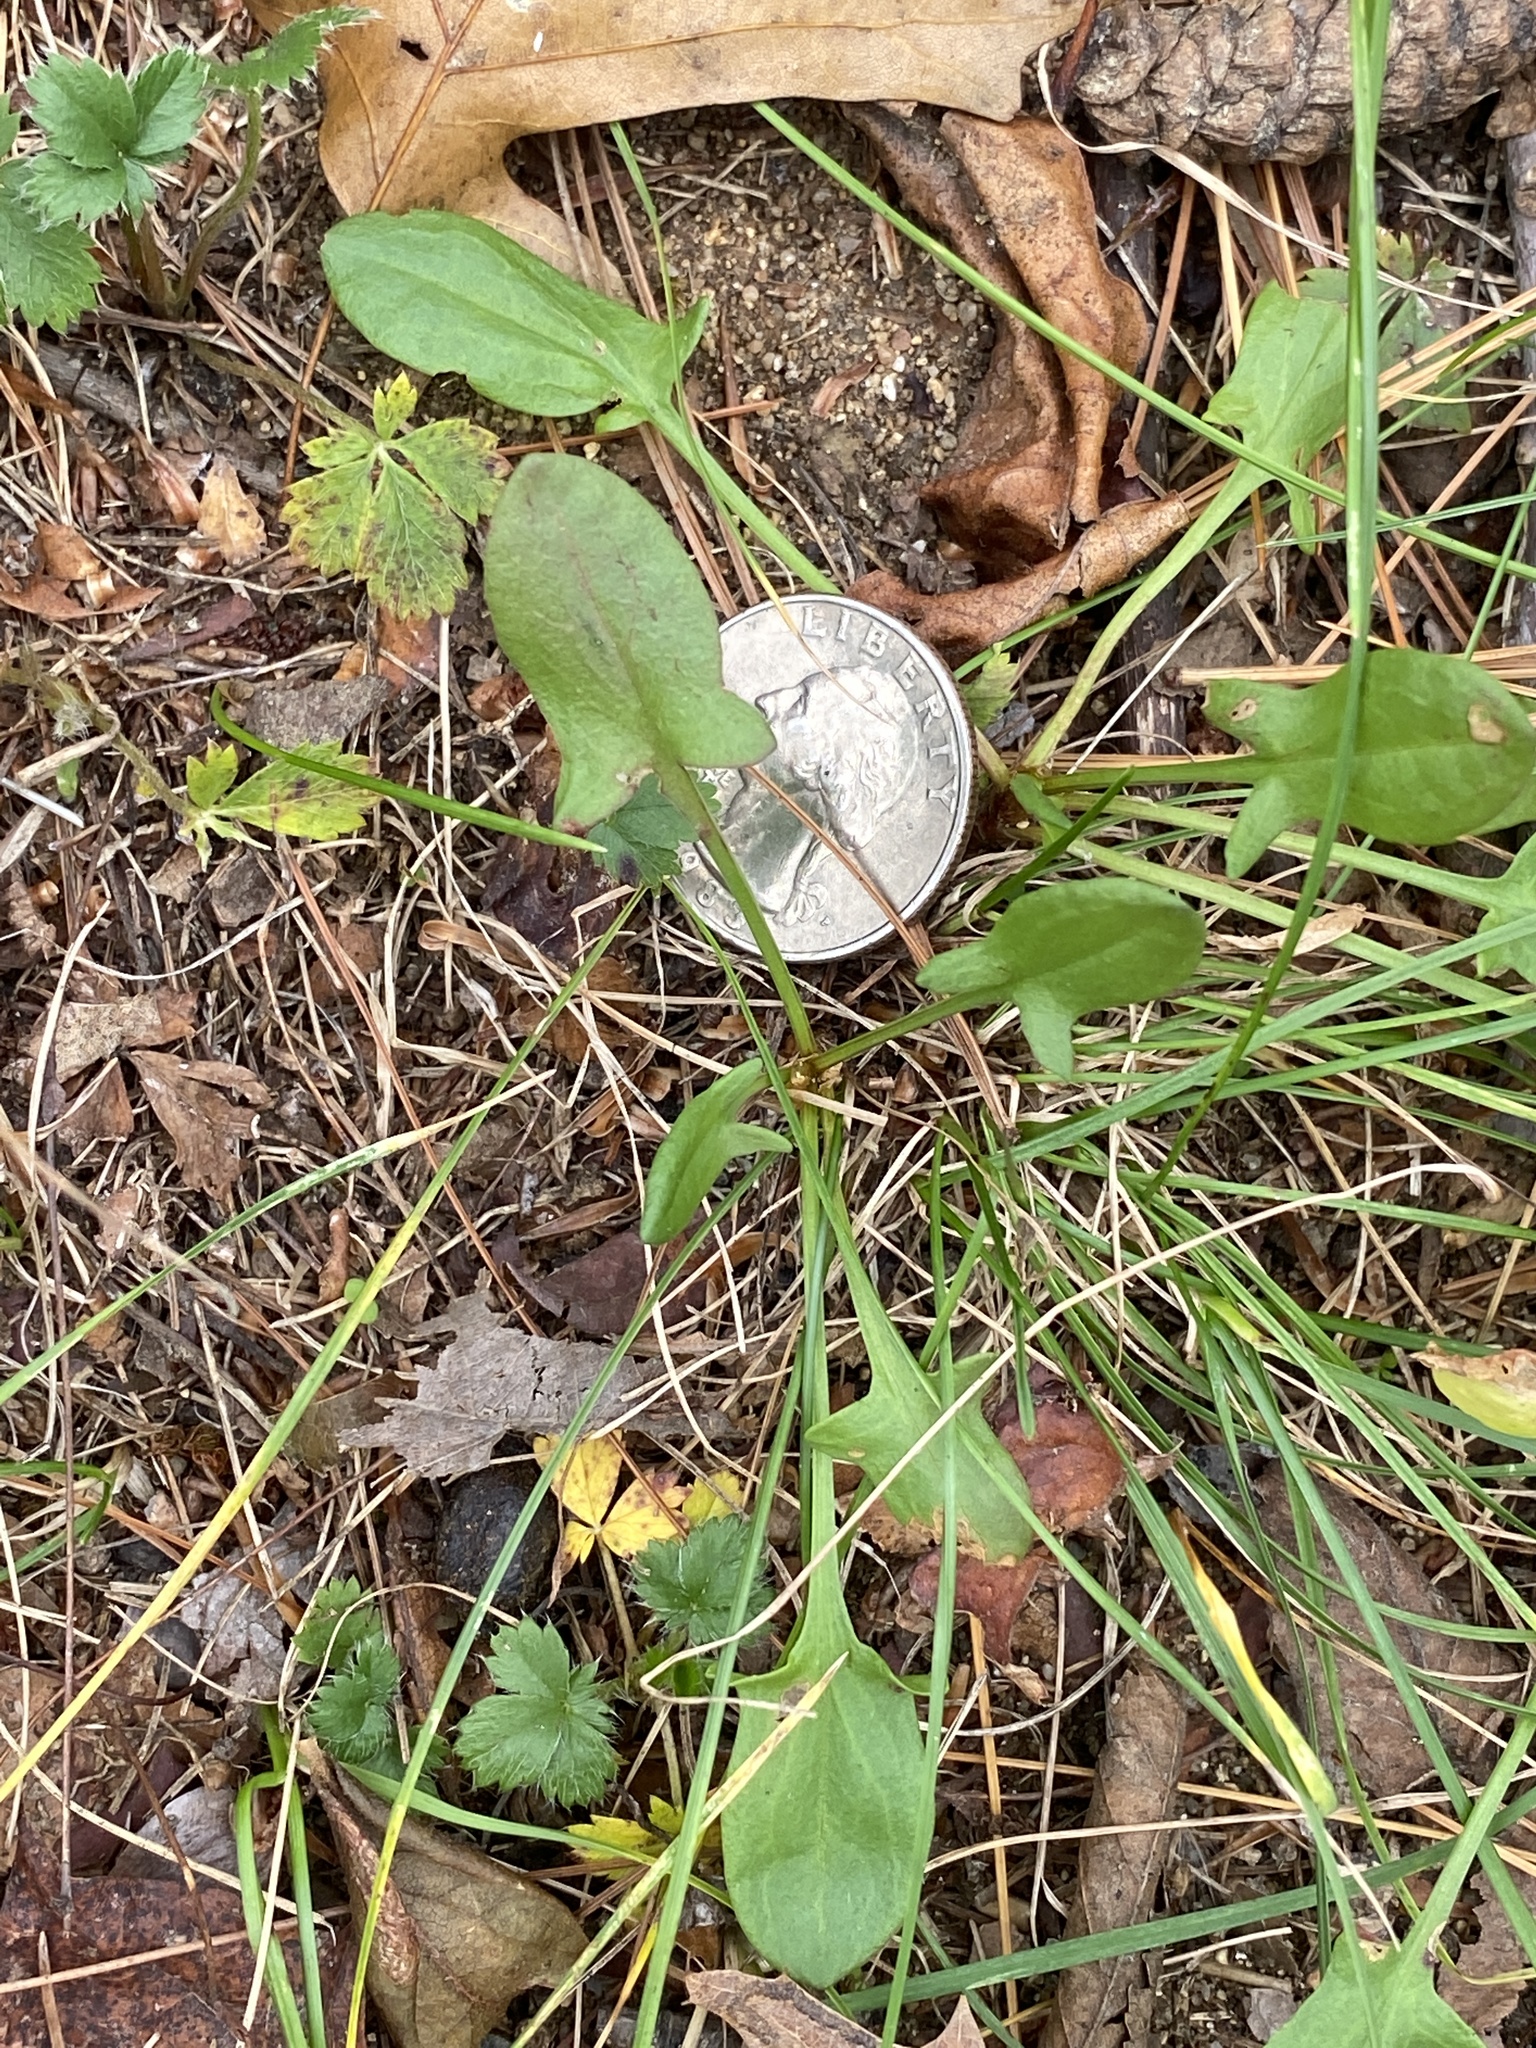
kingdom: Plantae
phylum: Tracheophyta
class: Magnoliopsida
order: Caryophyllales
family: Polygonaceae
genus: Rumex
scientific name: Rumex acetosella
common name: Common sheep sorrel
